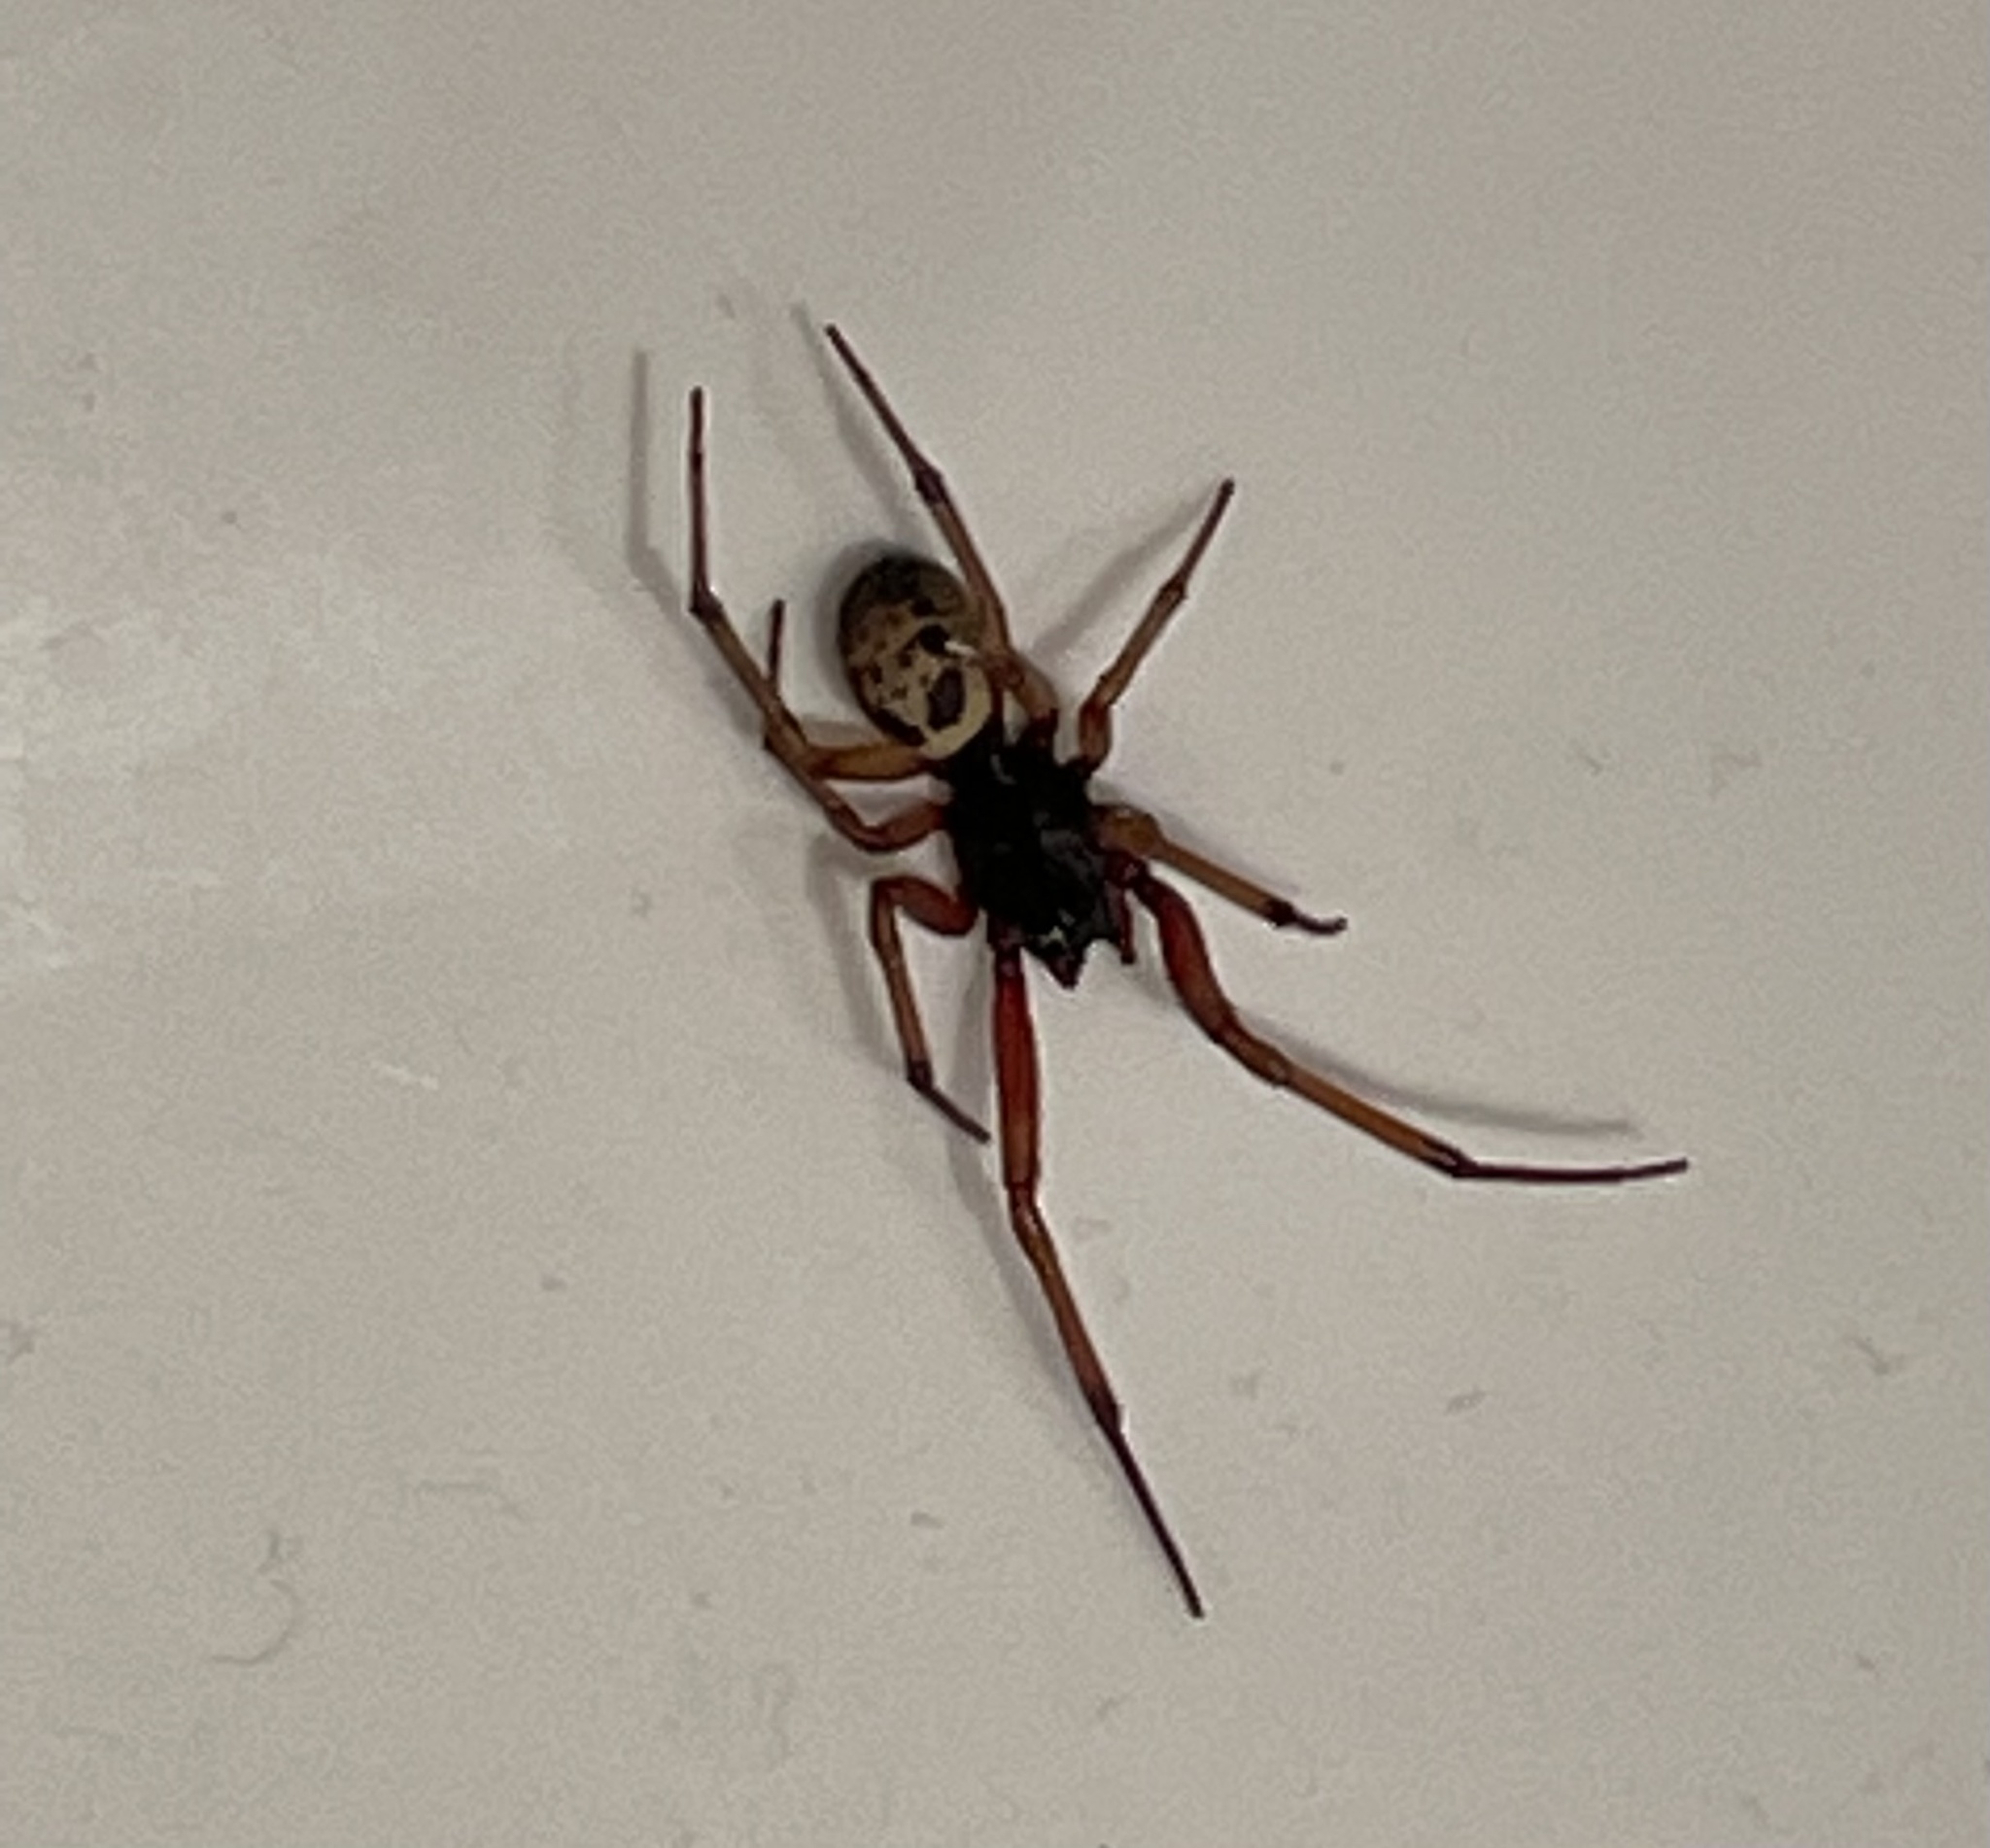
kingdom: Animalia
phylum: Arthropoda
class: Arachnida
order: Araneae
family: Theridiidae
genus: Steatoda
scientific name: Steatoda nobilis
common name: Cobweb weaver
